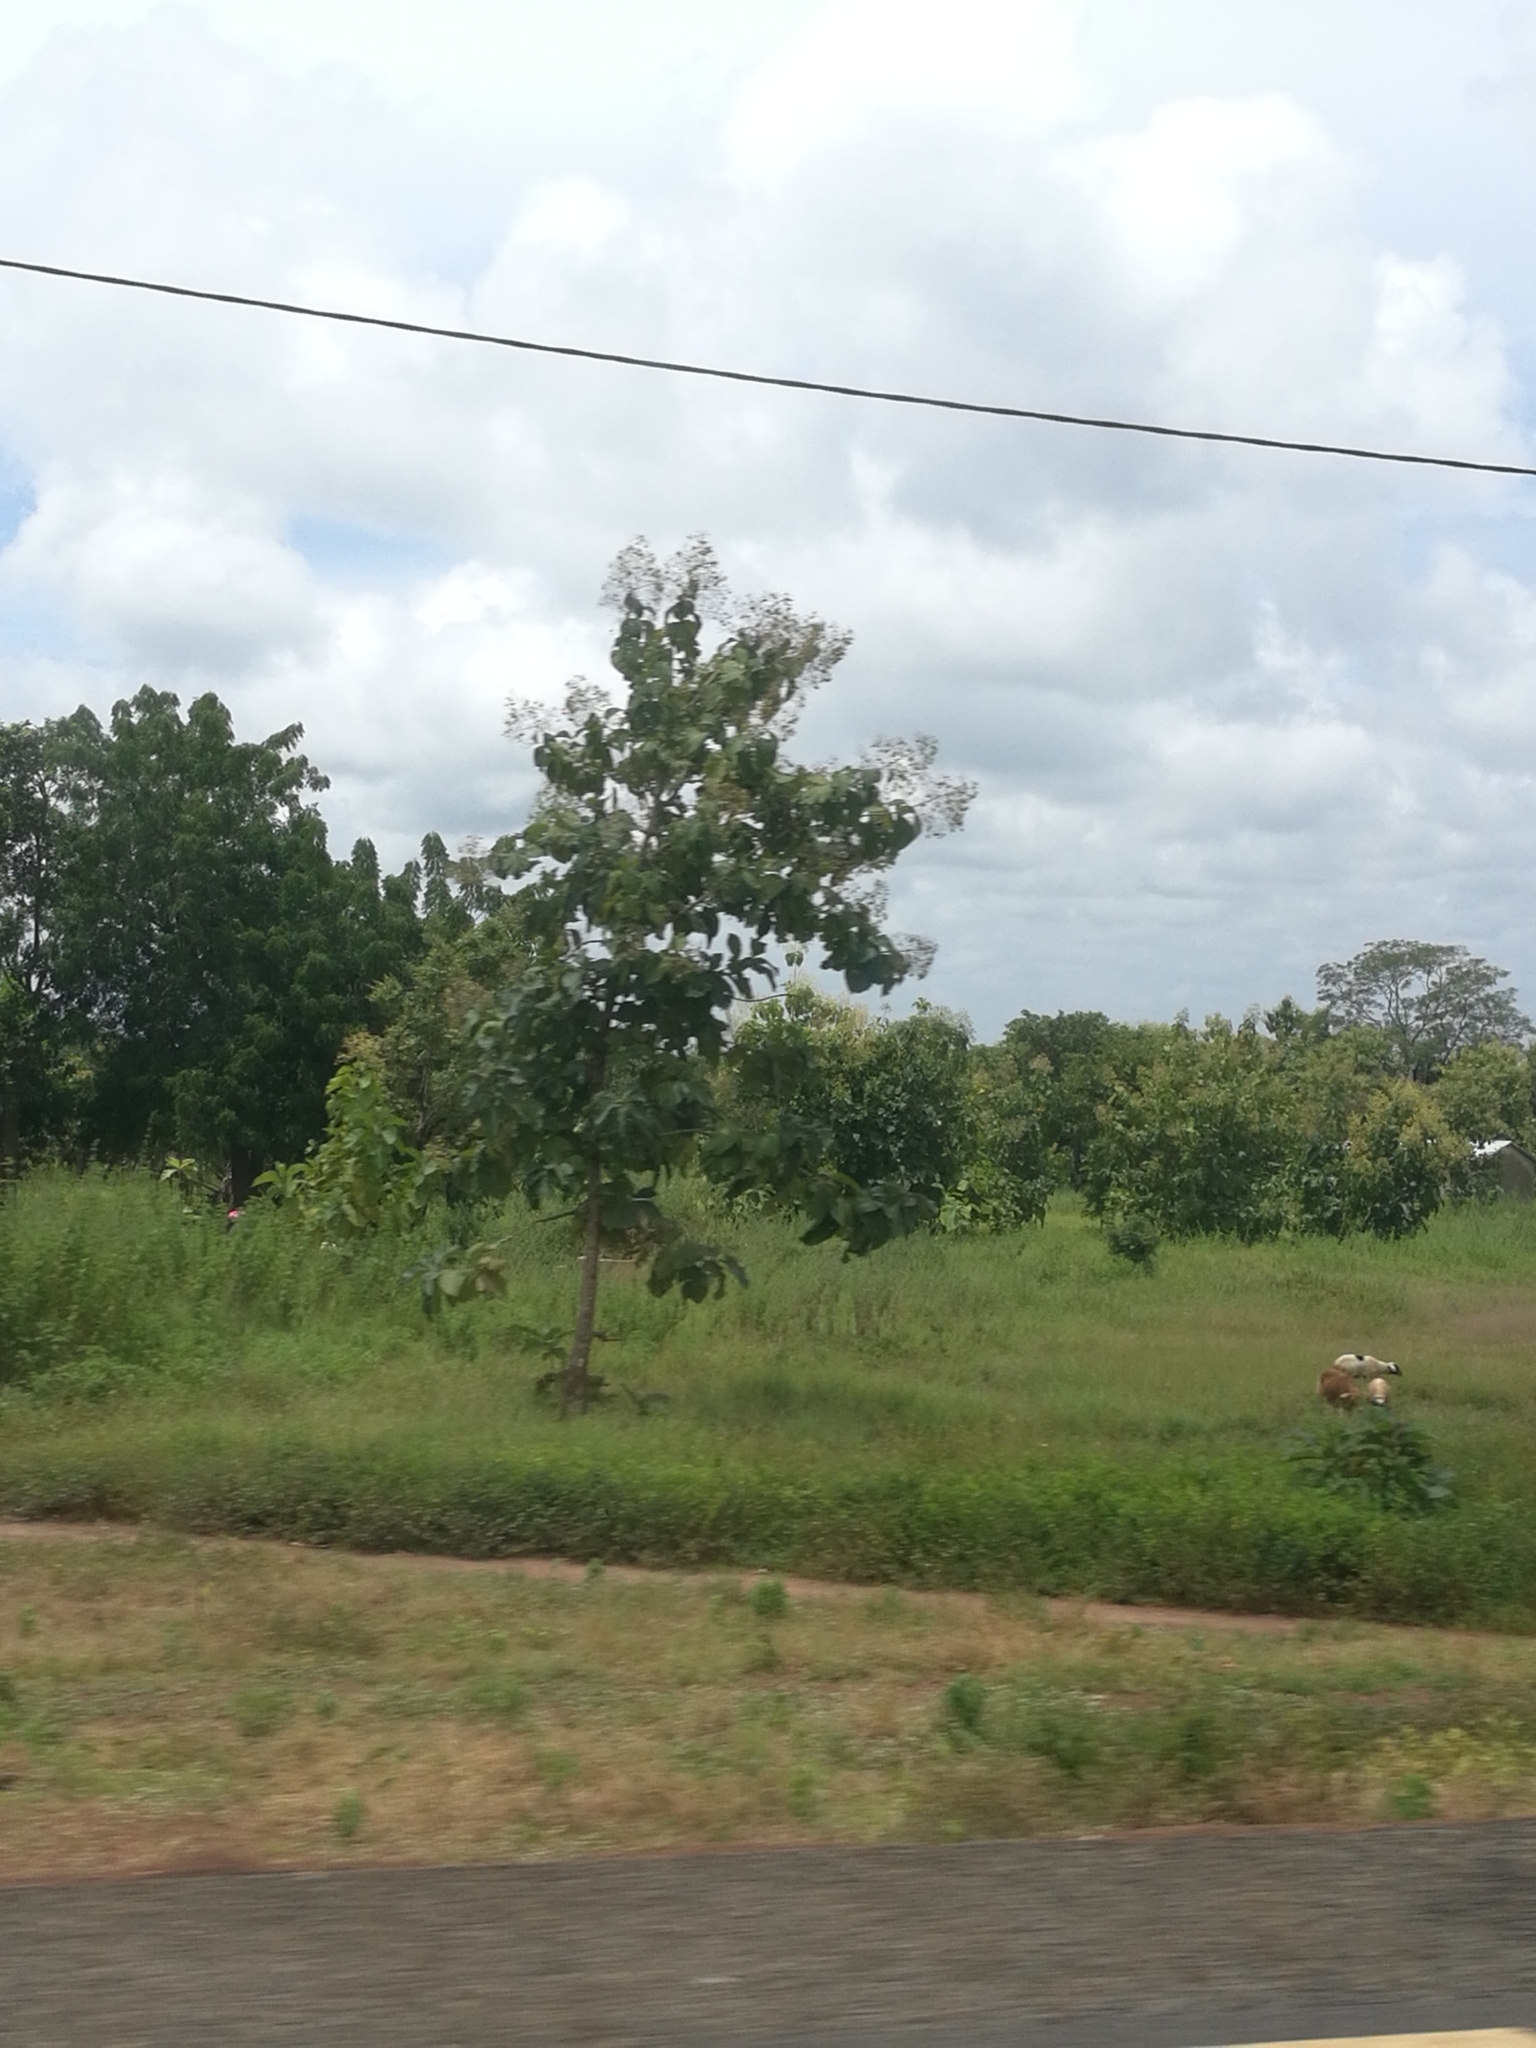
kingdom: Plantae
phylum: Tracheophyta
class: Magnoliopsida
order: Lamiales
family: Lamiaceae
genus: Tectona
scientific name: Tectona grandis
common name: Teak
